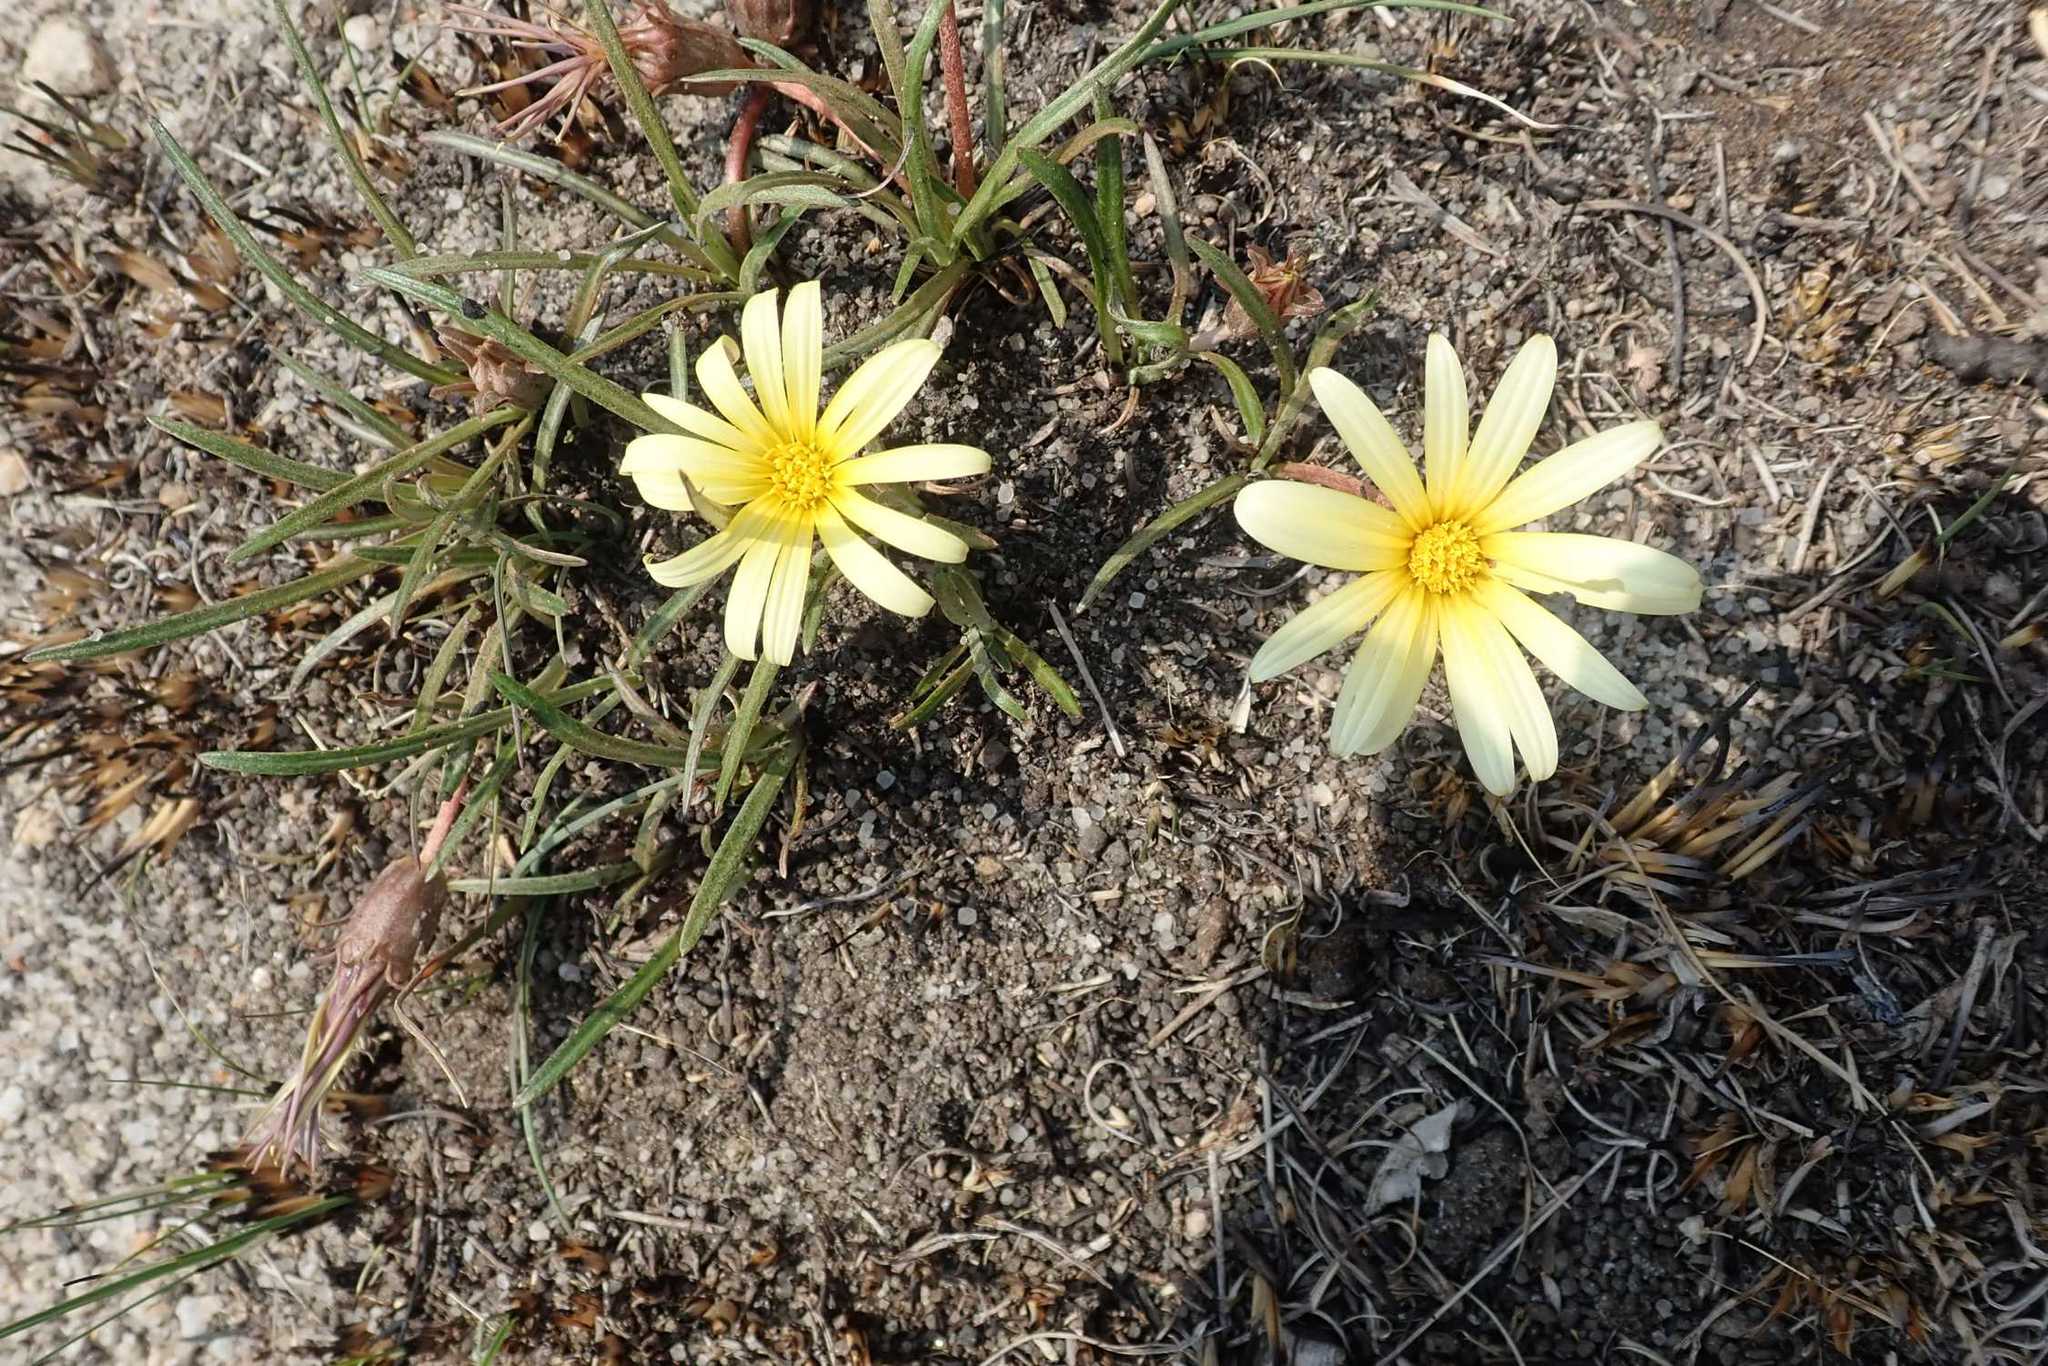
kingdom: Plantae
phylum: Tracheophyta
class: Magnoliopsida
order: Asterales
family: Asteraceae
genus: Gazania
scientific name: Gazania krebsiana
